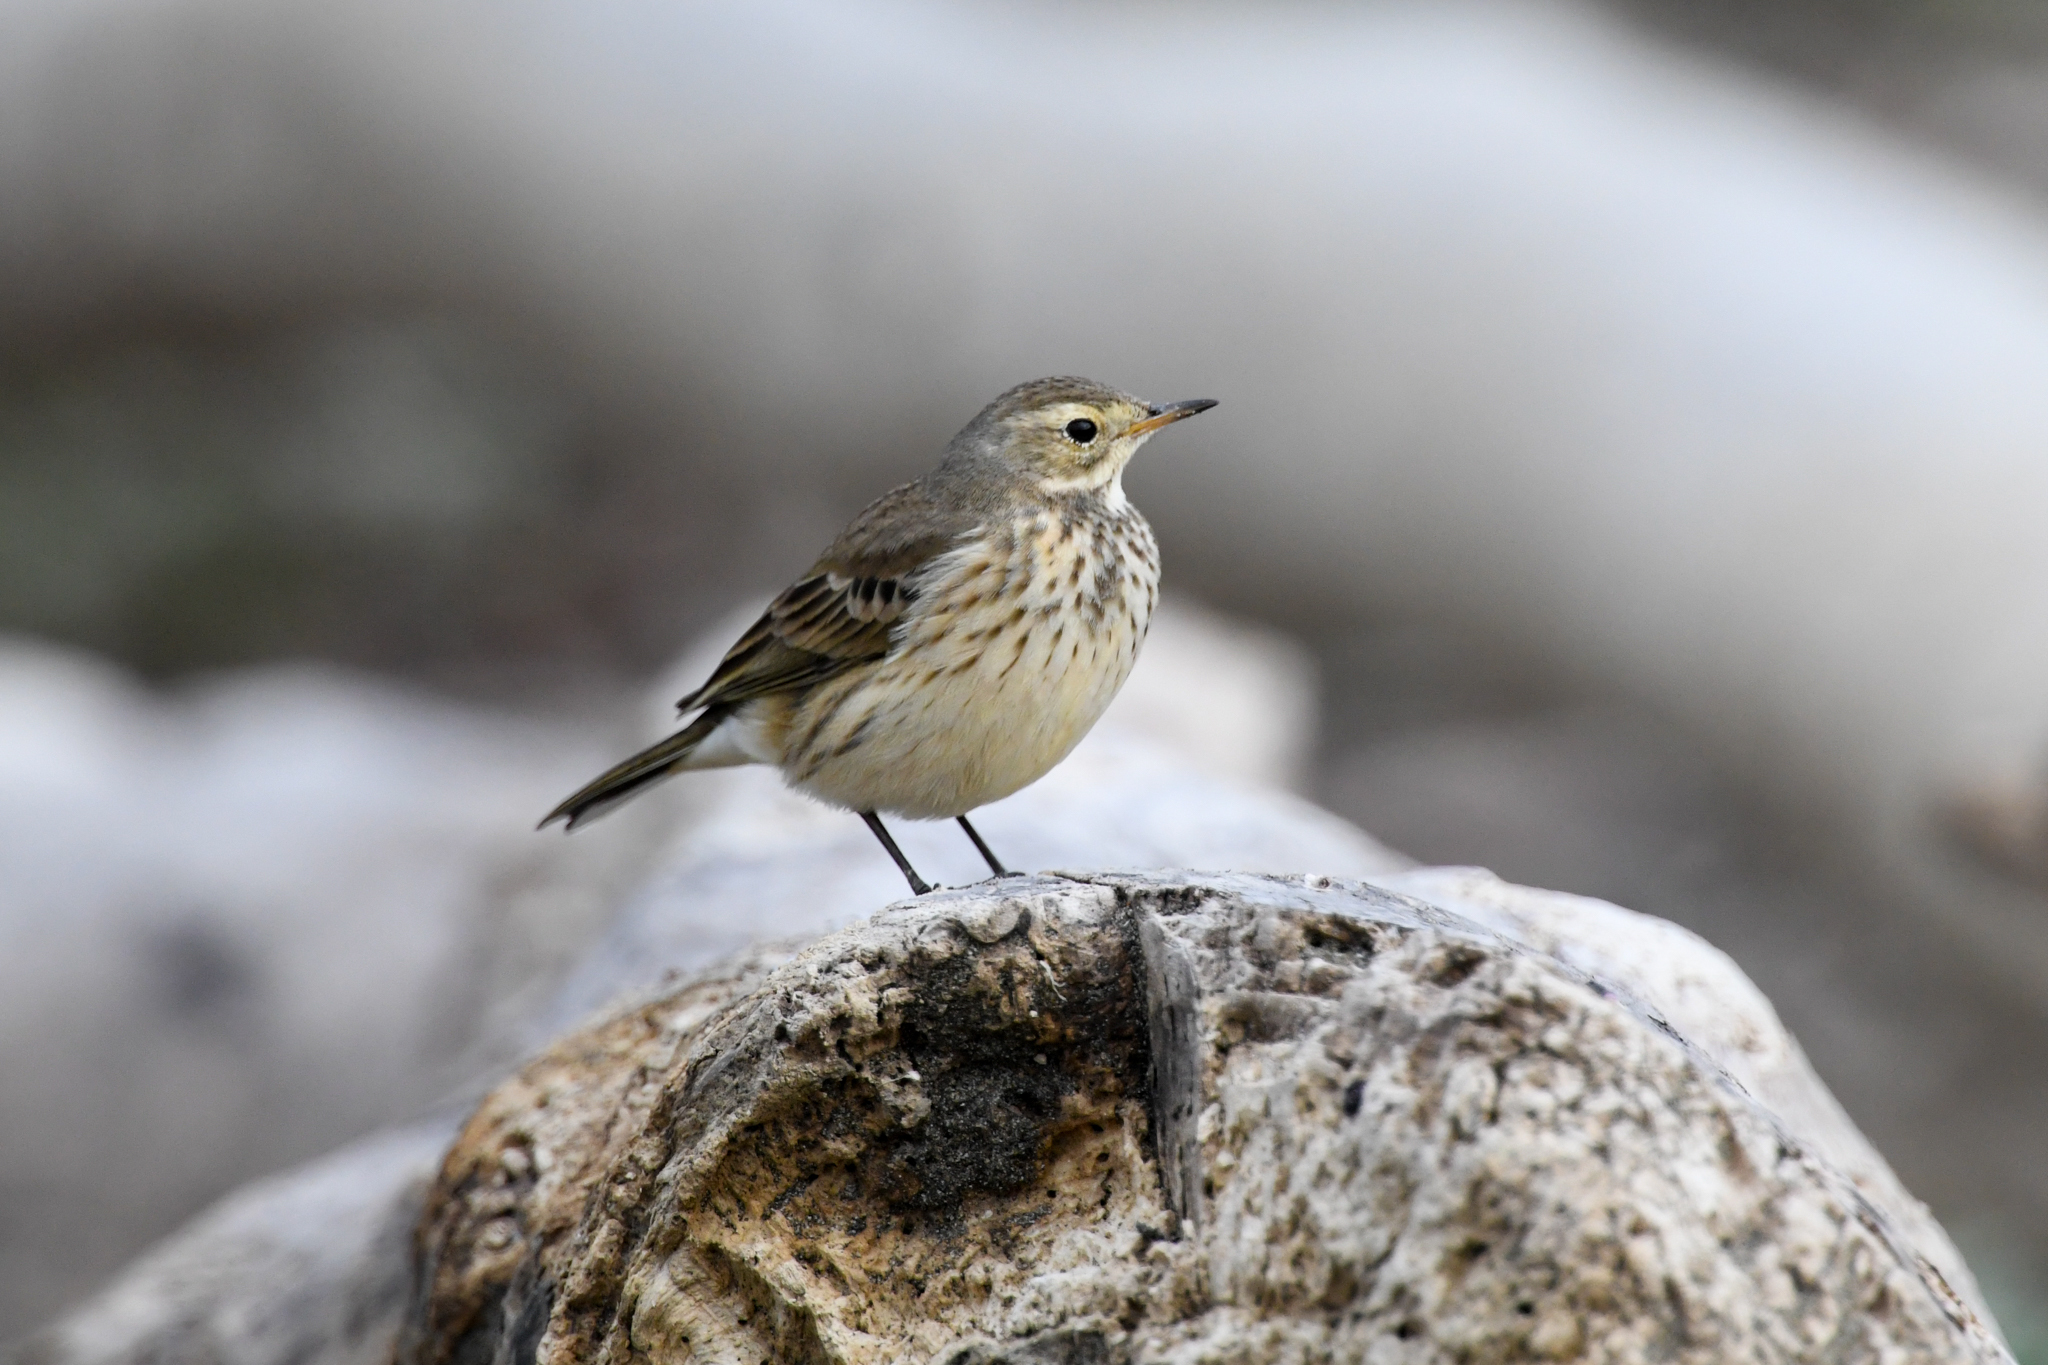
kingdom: Animalia
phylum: Chordata
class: Aves
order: Passeriformes
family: Motacillidae
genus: Anthus
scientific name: Anthus rubescens
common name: Buff-bellied pipit
